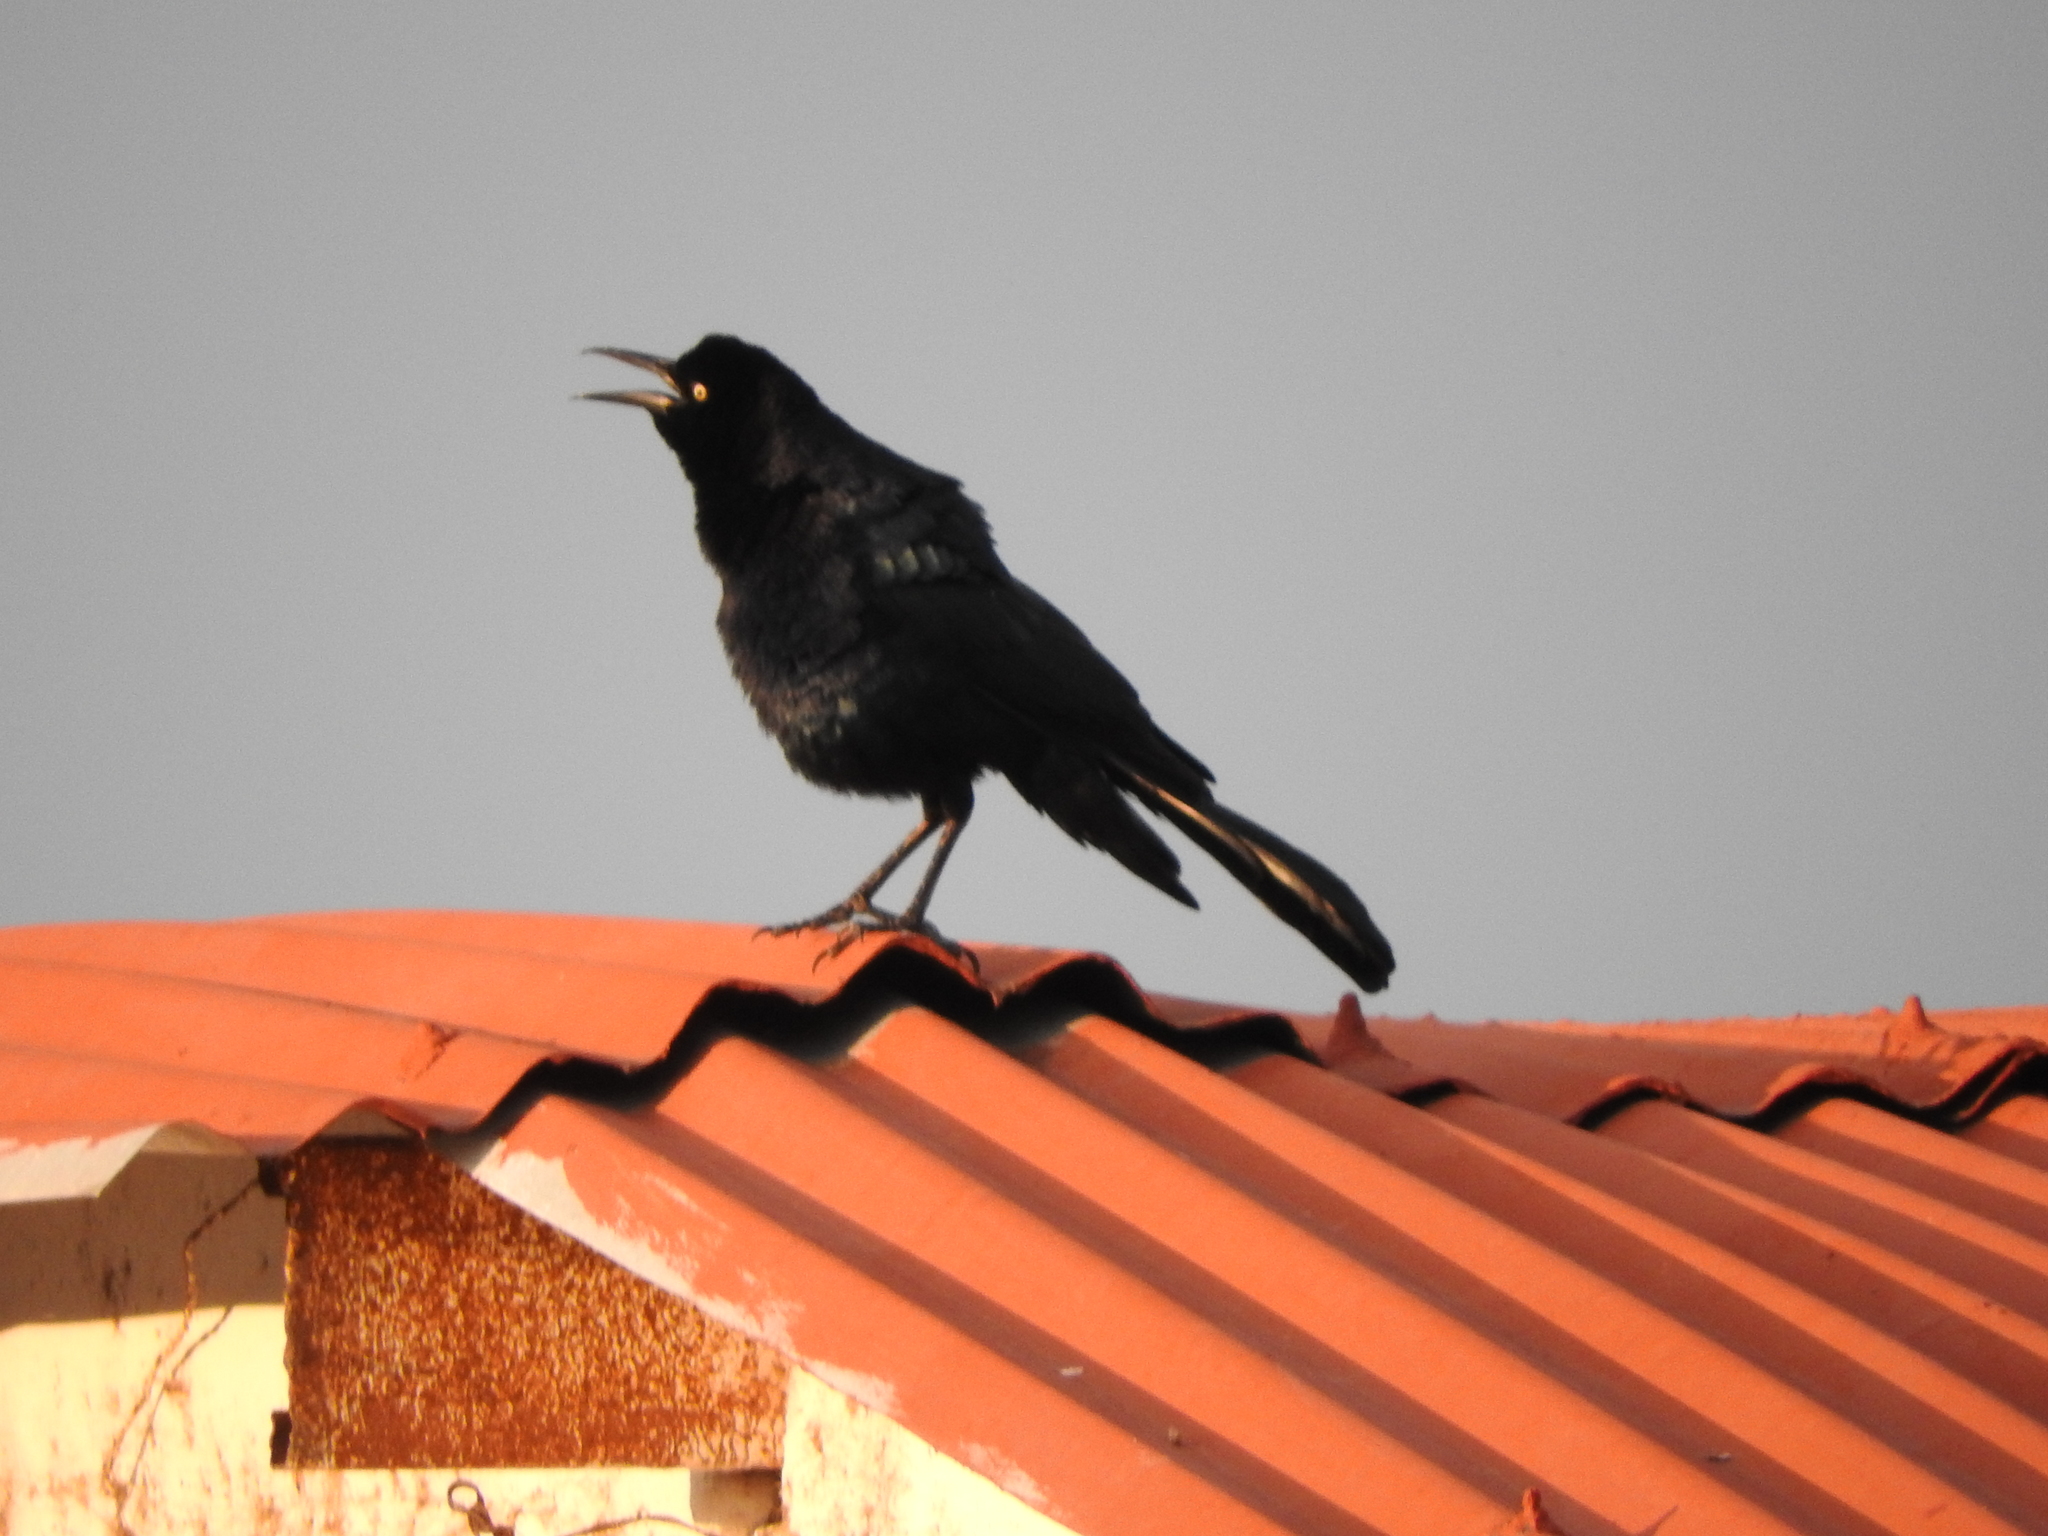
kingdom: Animalia
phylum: Chordata
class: Aves
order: Passeriformes
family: Icteridae
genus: Quiscalus
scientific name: Quiscalus mexicanus
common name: Great-tailed grackle
